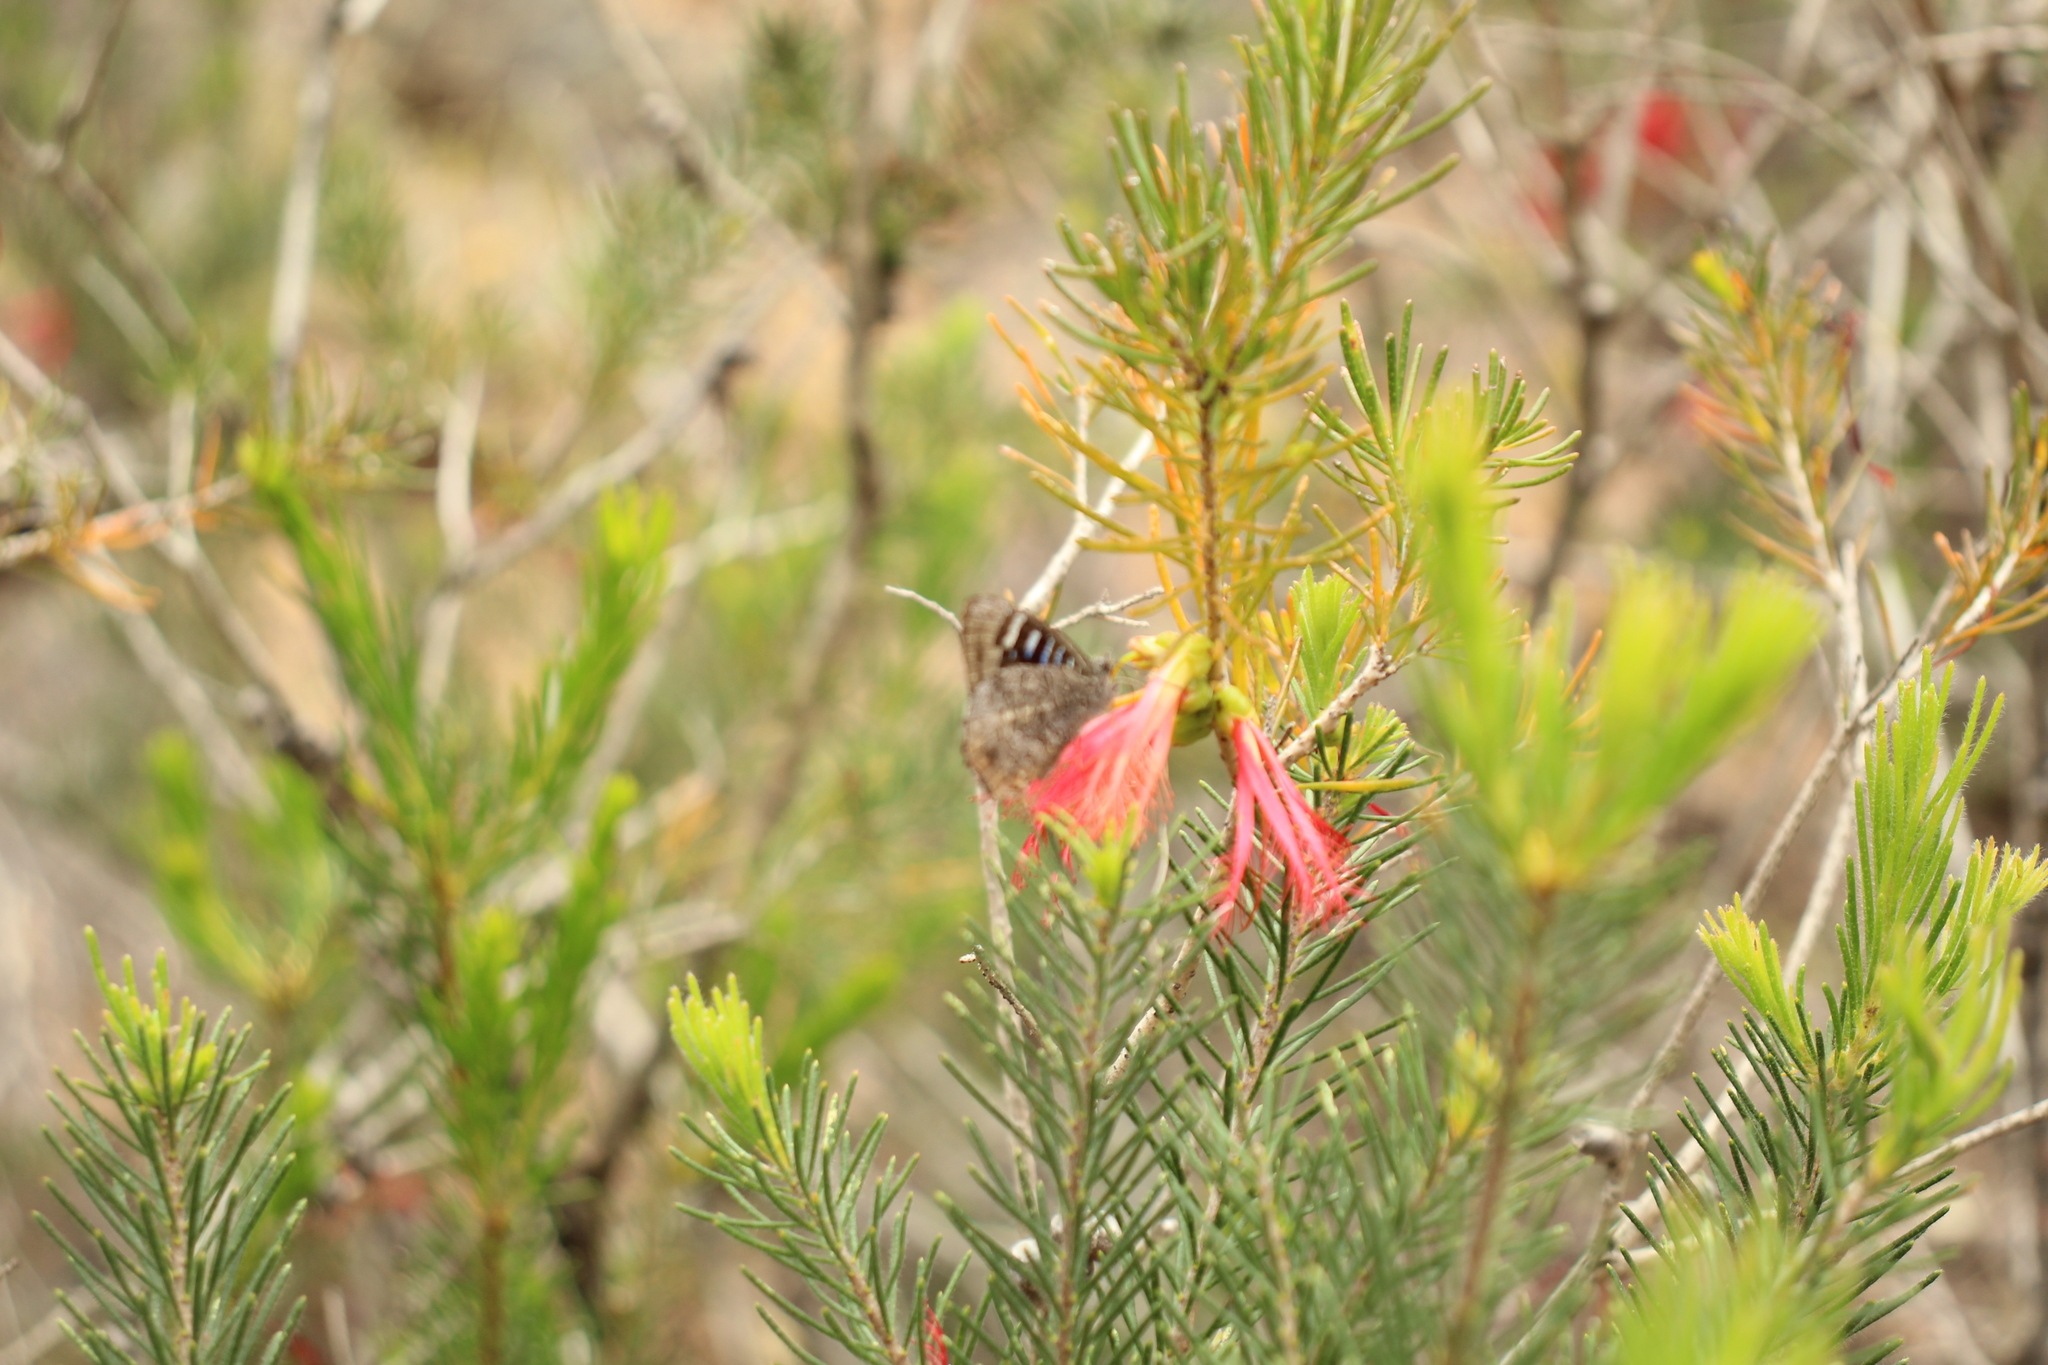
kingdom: Animalia
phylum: Arthropoda
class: Insecta
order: Lepidoptera
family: Lycaenidae
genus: Ogyris
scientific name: Ogyris amaryllis
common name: Satin azure
